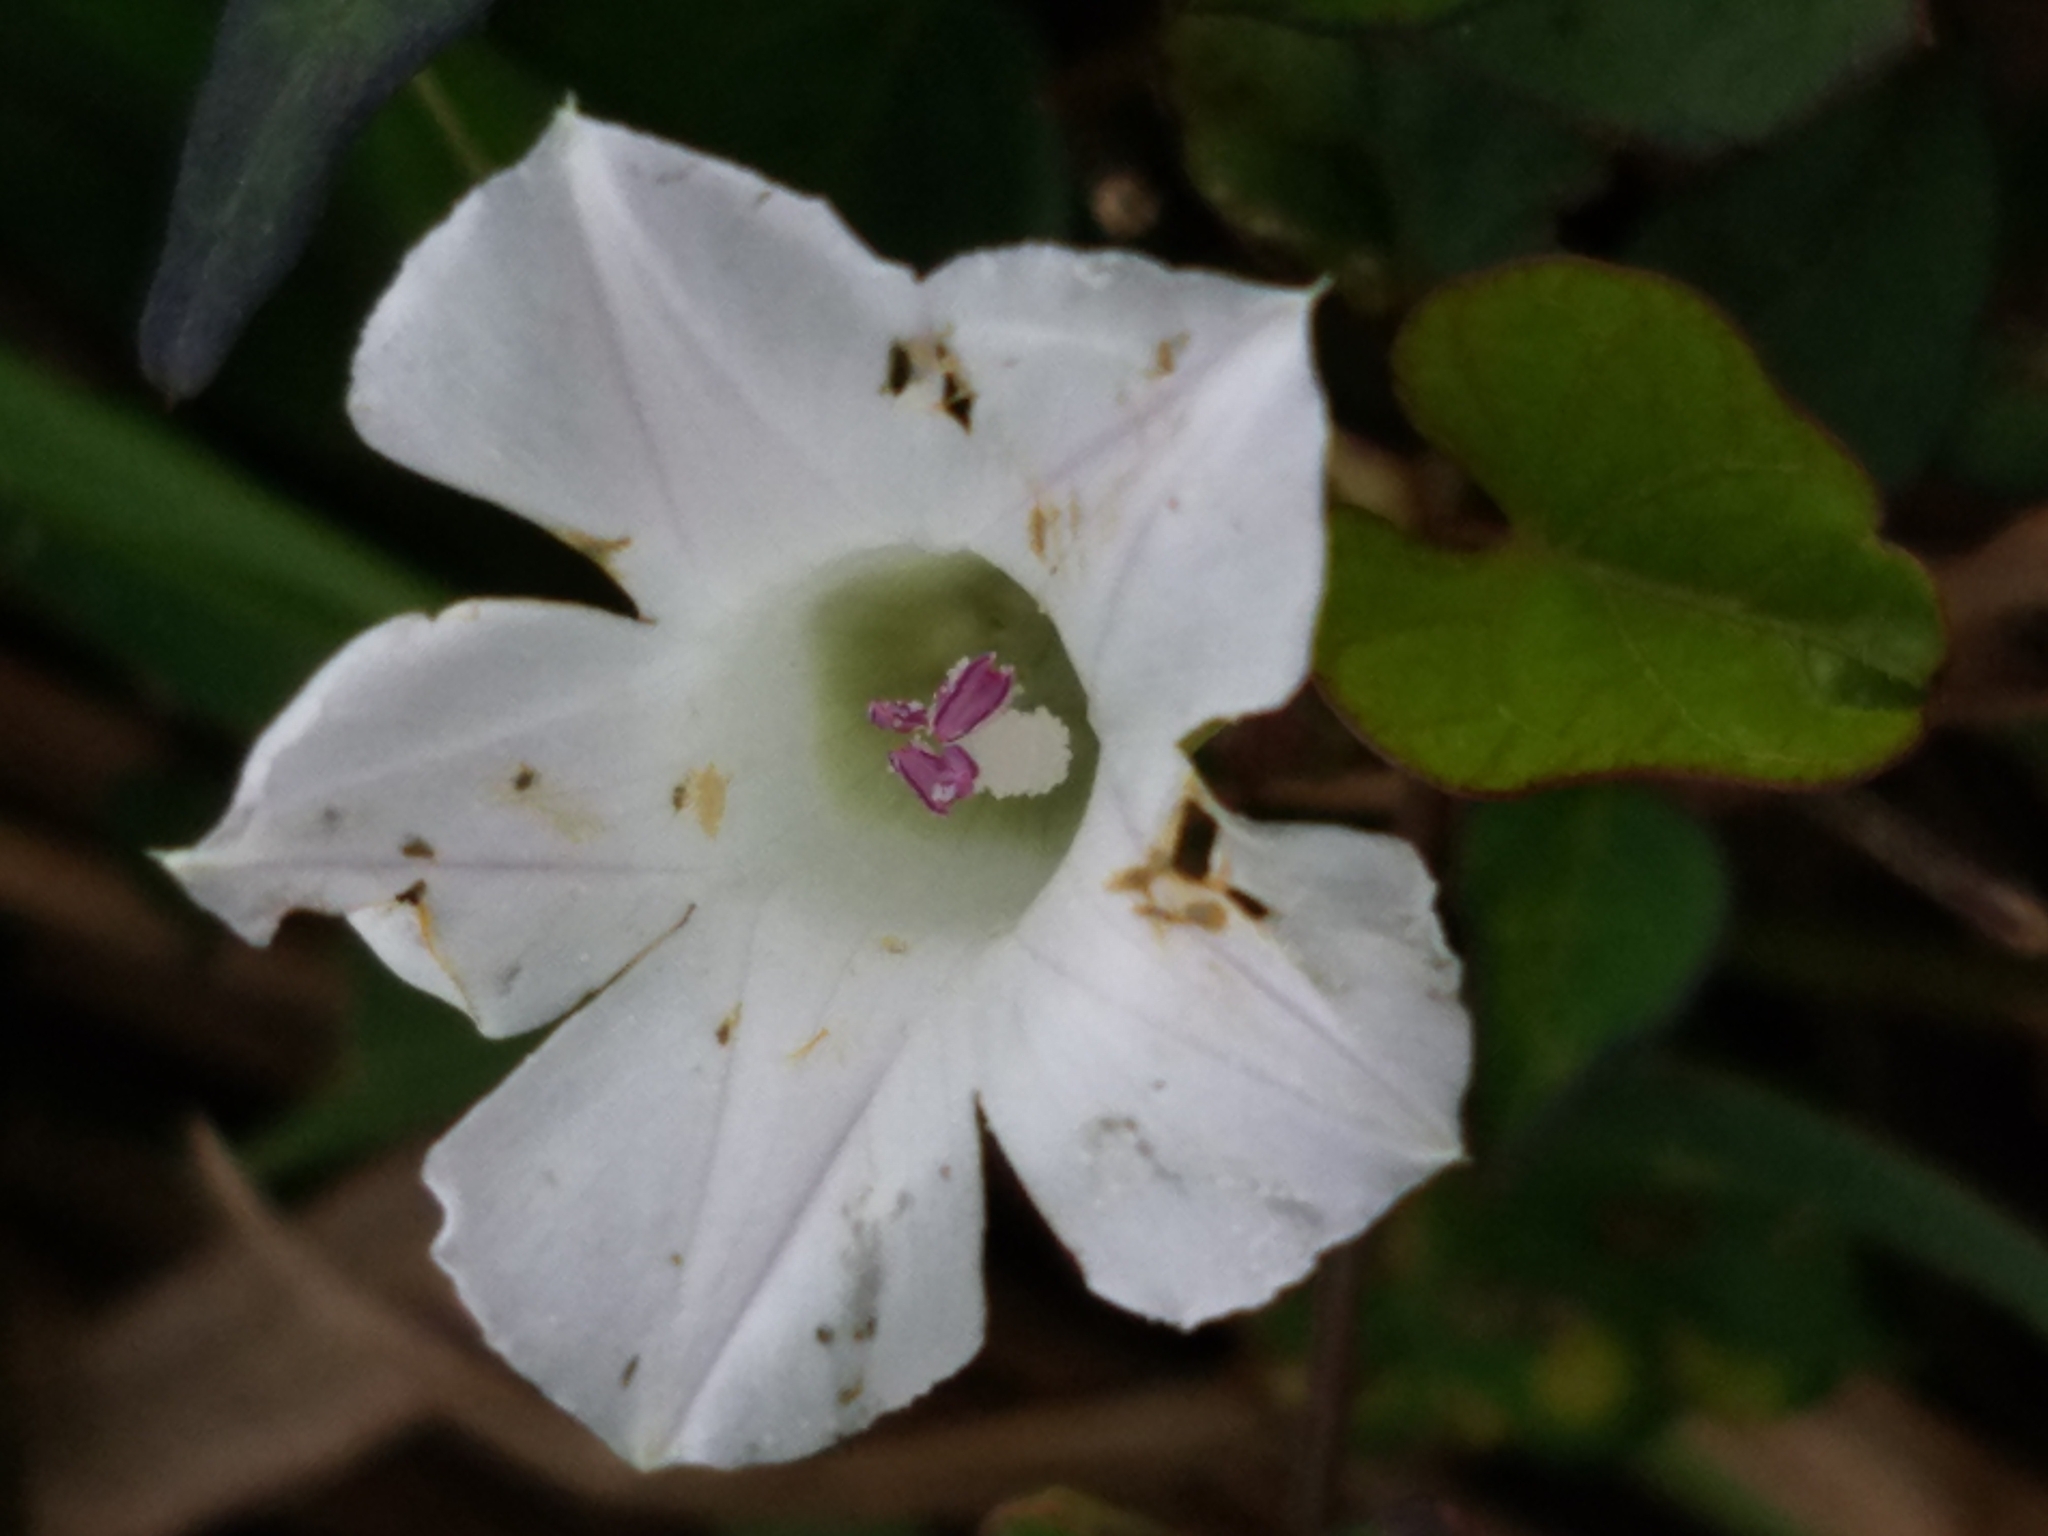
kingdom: Plantae
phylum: Tracheophyta
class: Magnoliopsida
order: Solanales
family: Convolvulaceae
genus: Ipomoea
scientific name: Ipomoea lacunosa
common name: White morning-glory
